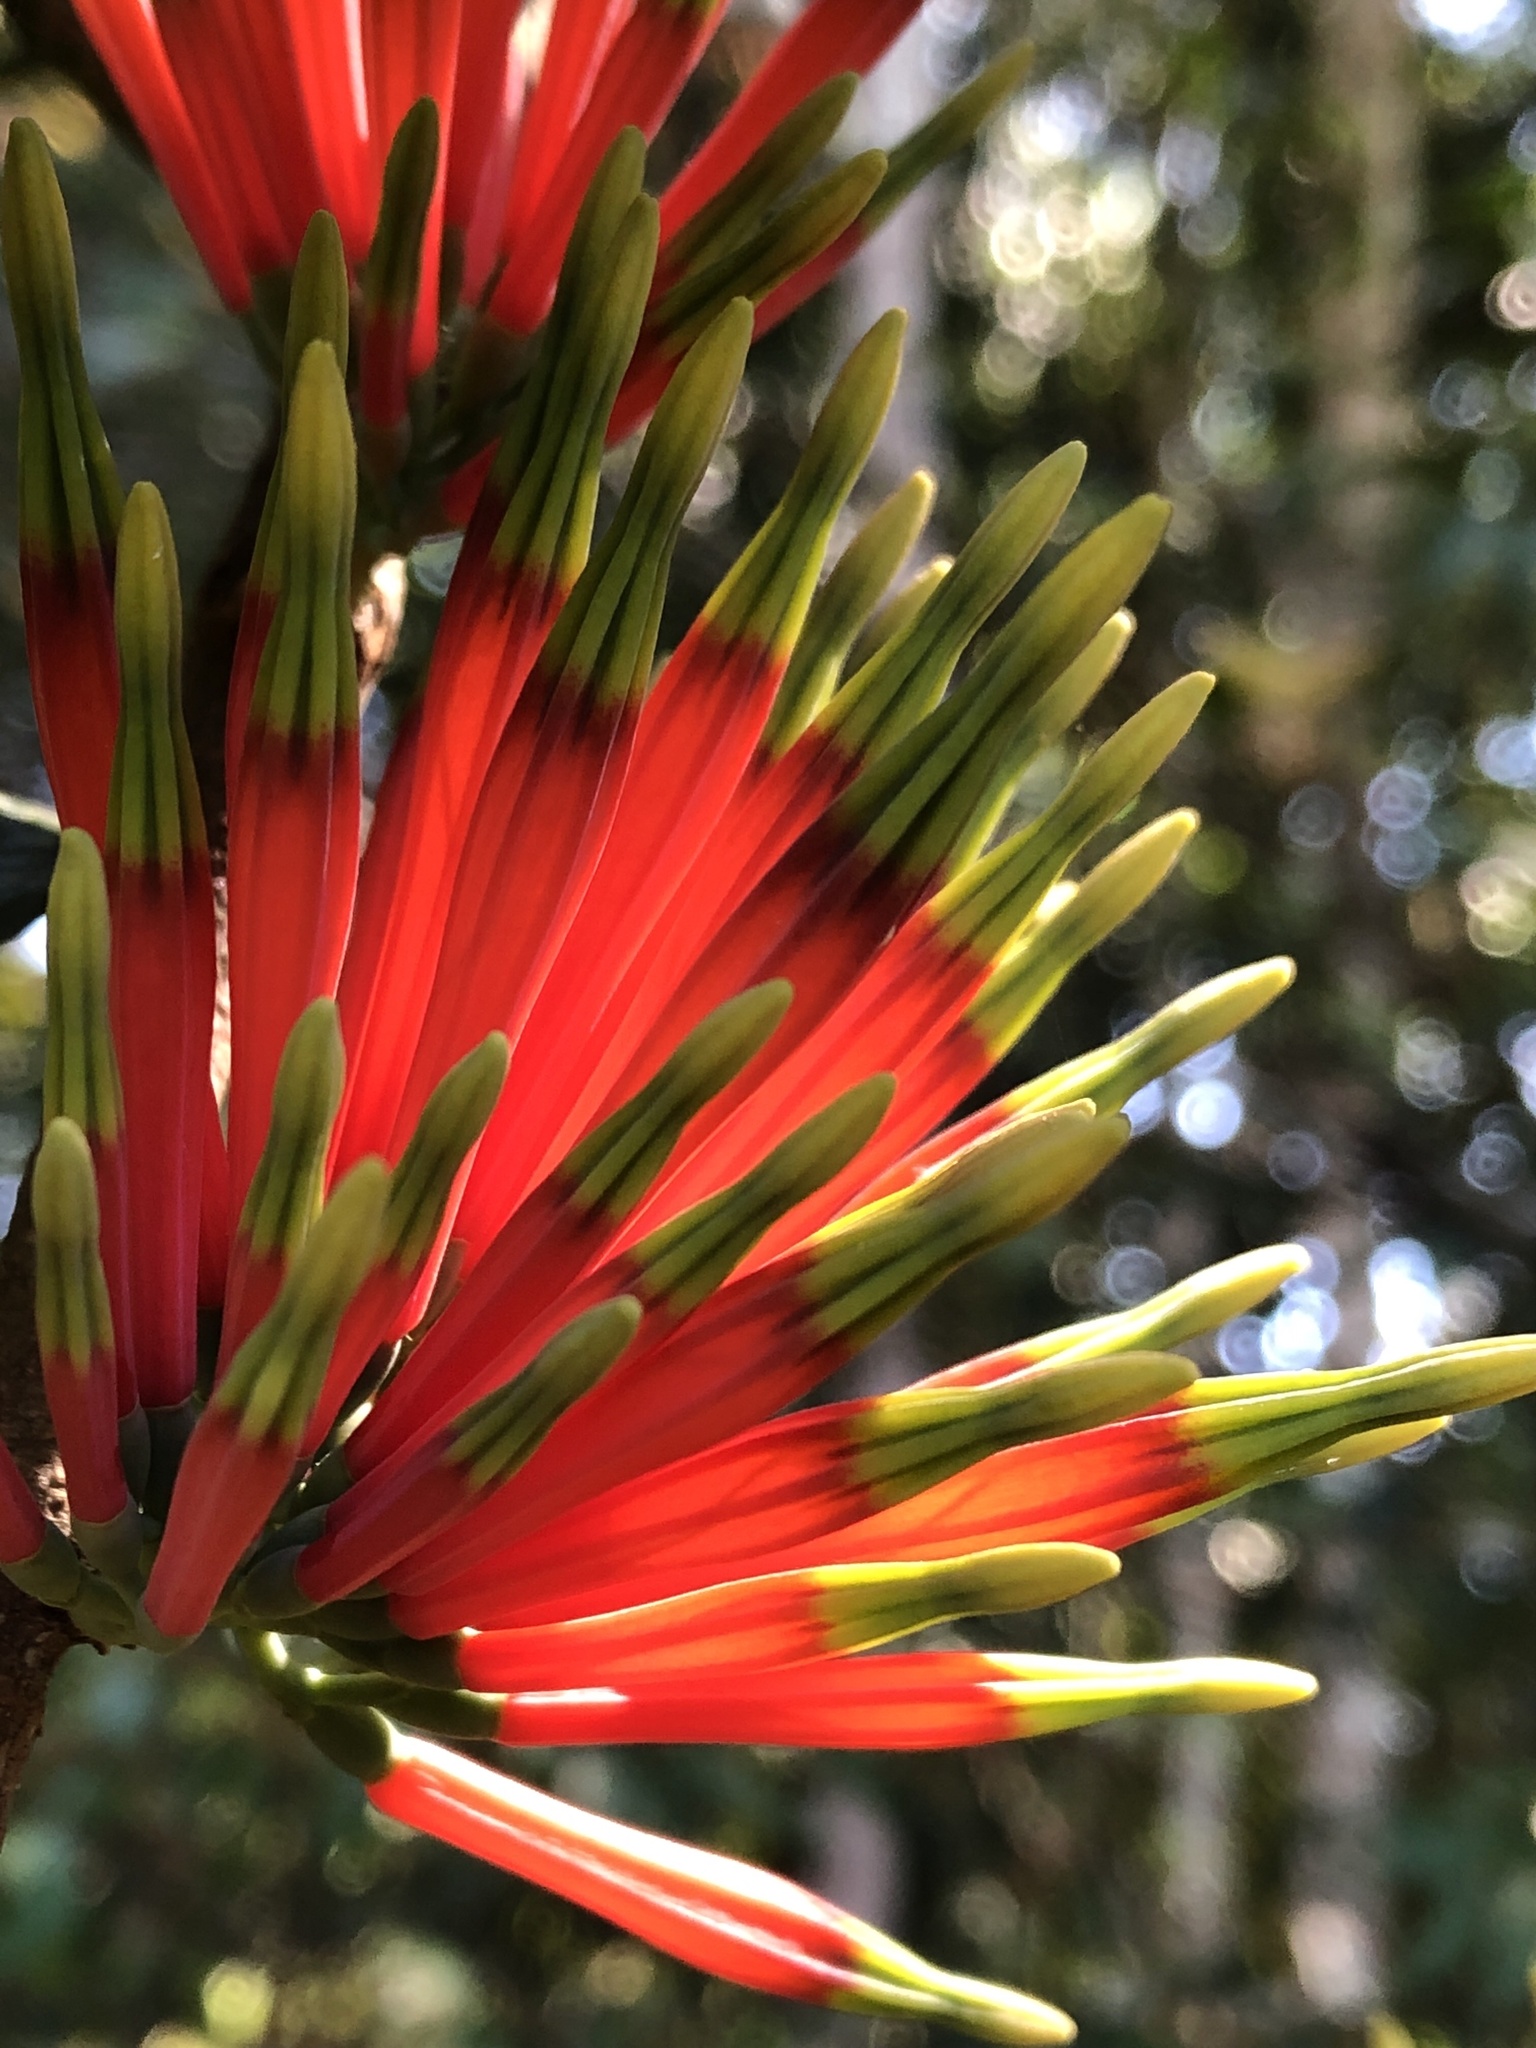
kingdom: Plantae
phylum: Tracheophyta
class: Magnoliopsida
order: Santalales
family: Loranthaceae
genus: Amylotheca
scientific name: Amylotheca dictyophleba
